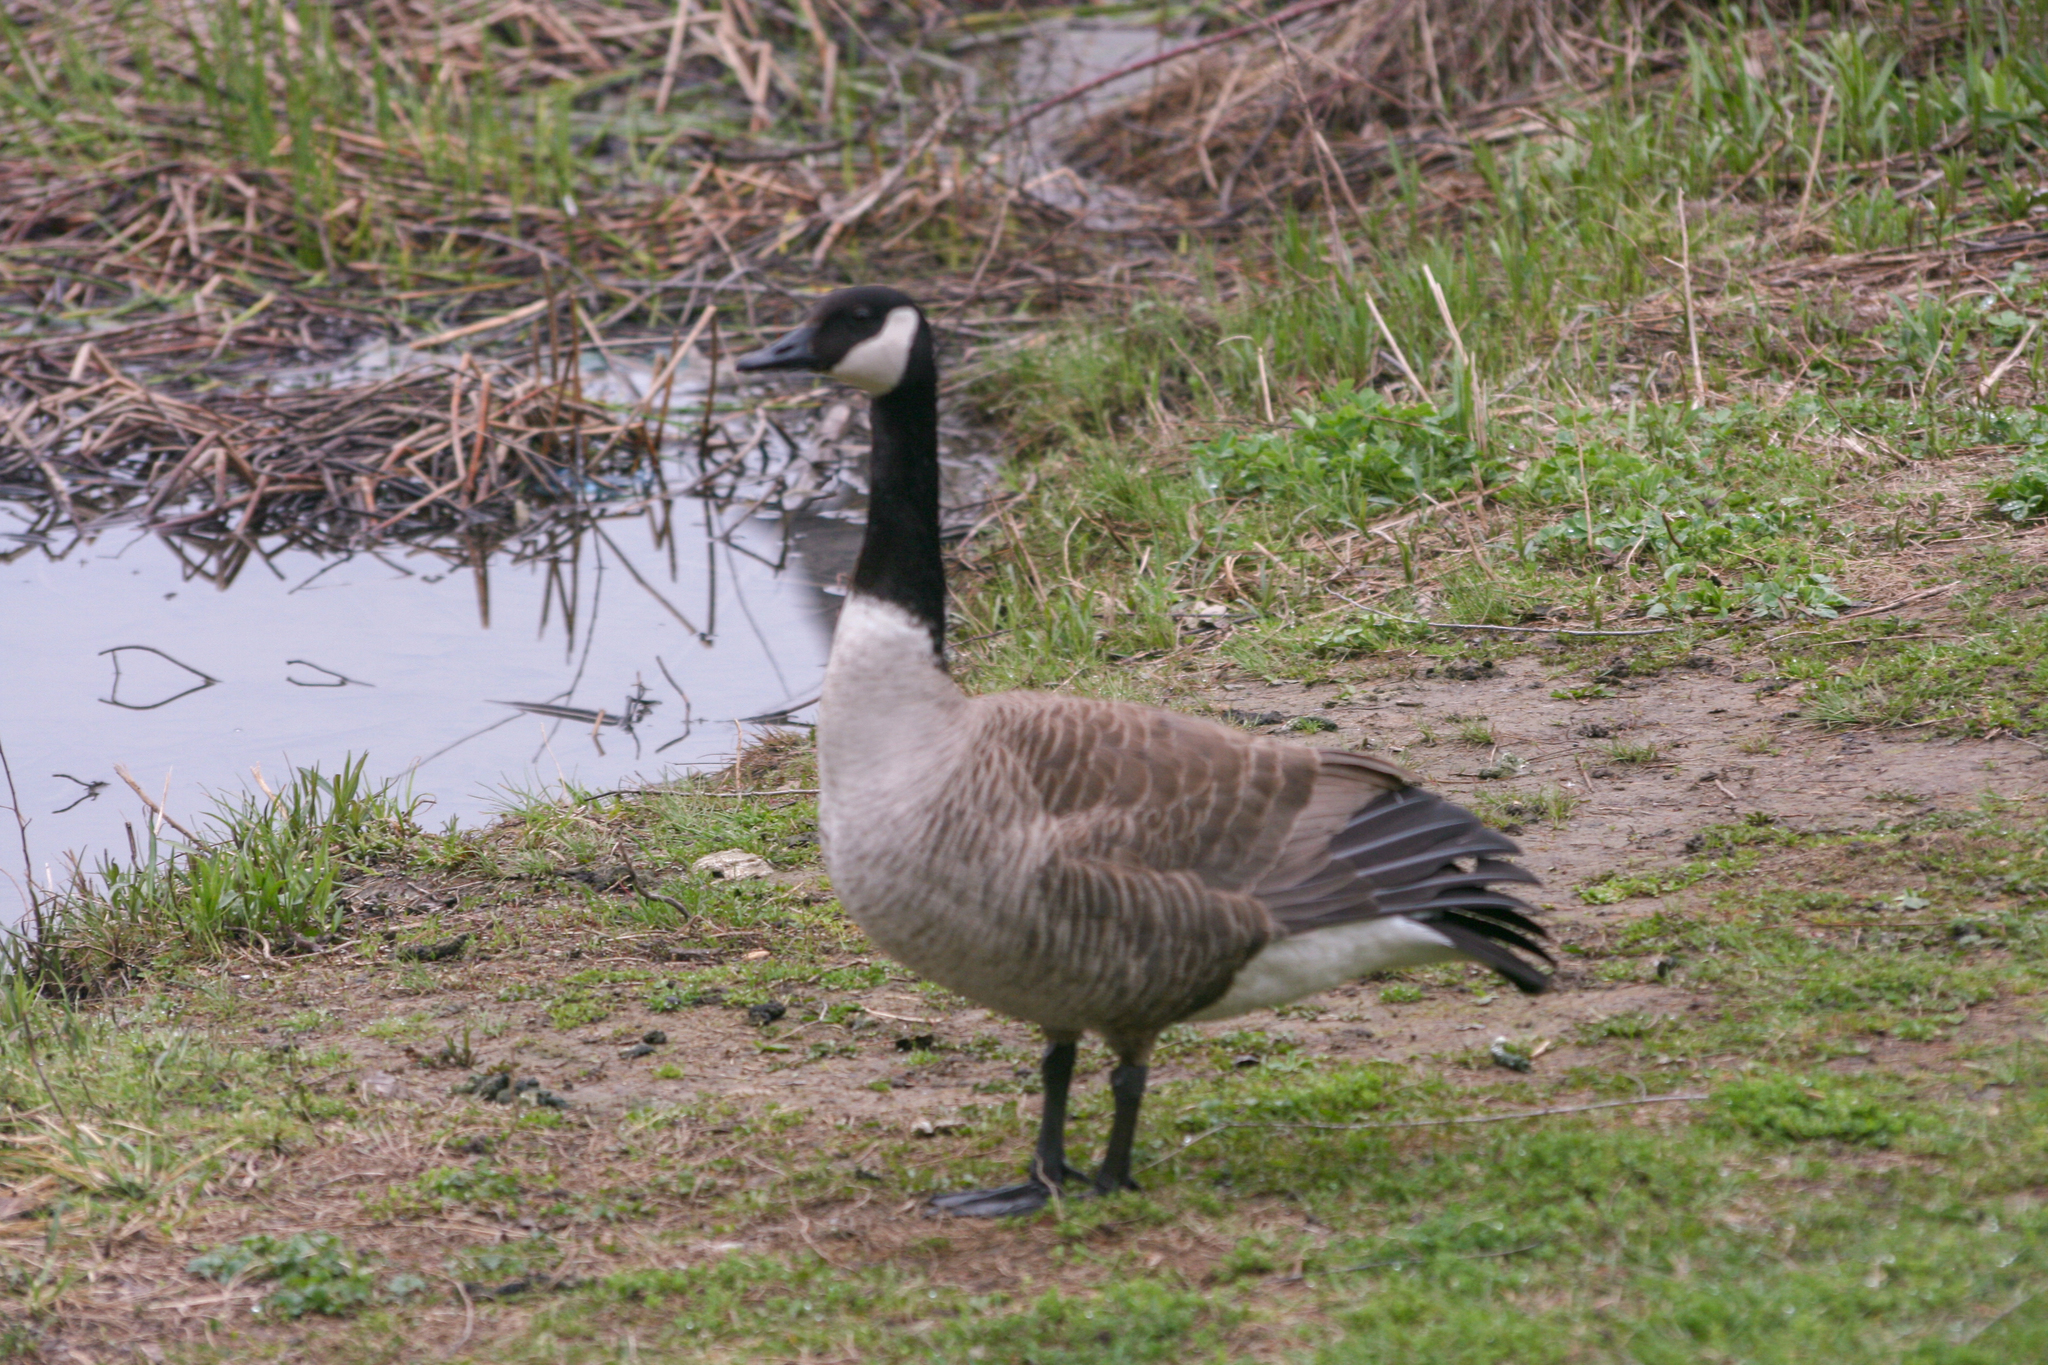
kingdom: Animalia
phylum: Chordata
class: Aves
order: Anseriformes
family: Anatidae
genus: Branta
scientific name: Branta canadensis
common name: Canada goose
